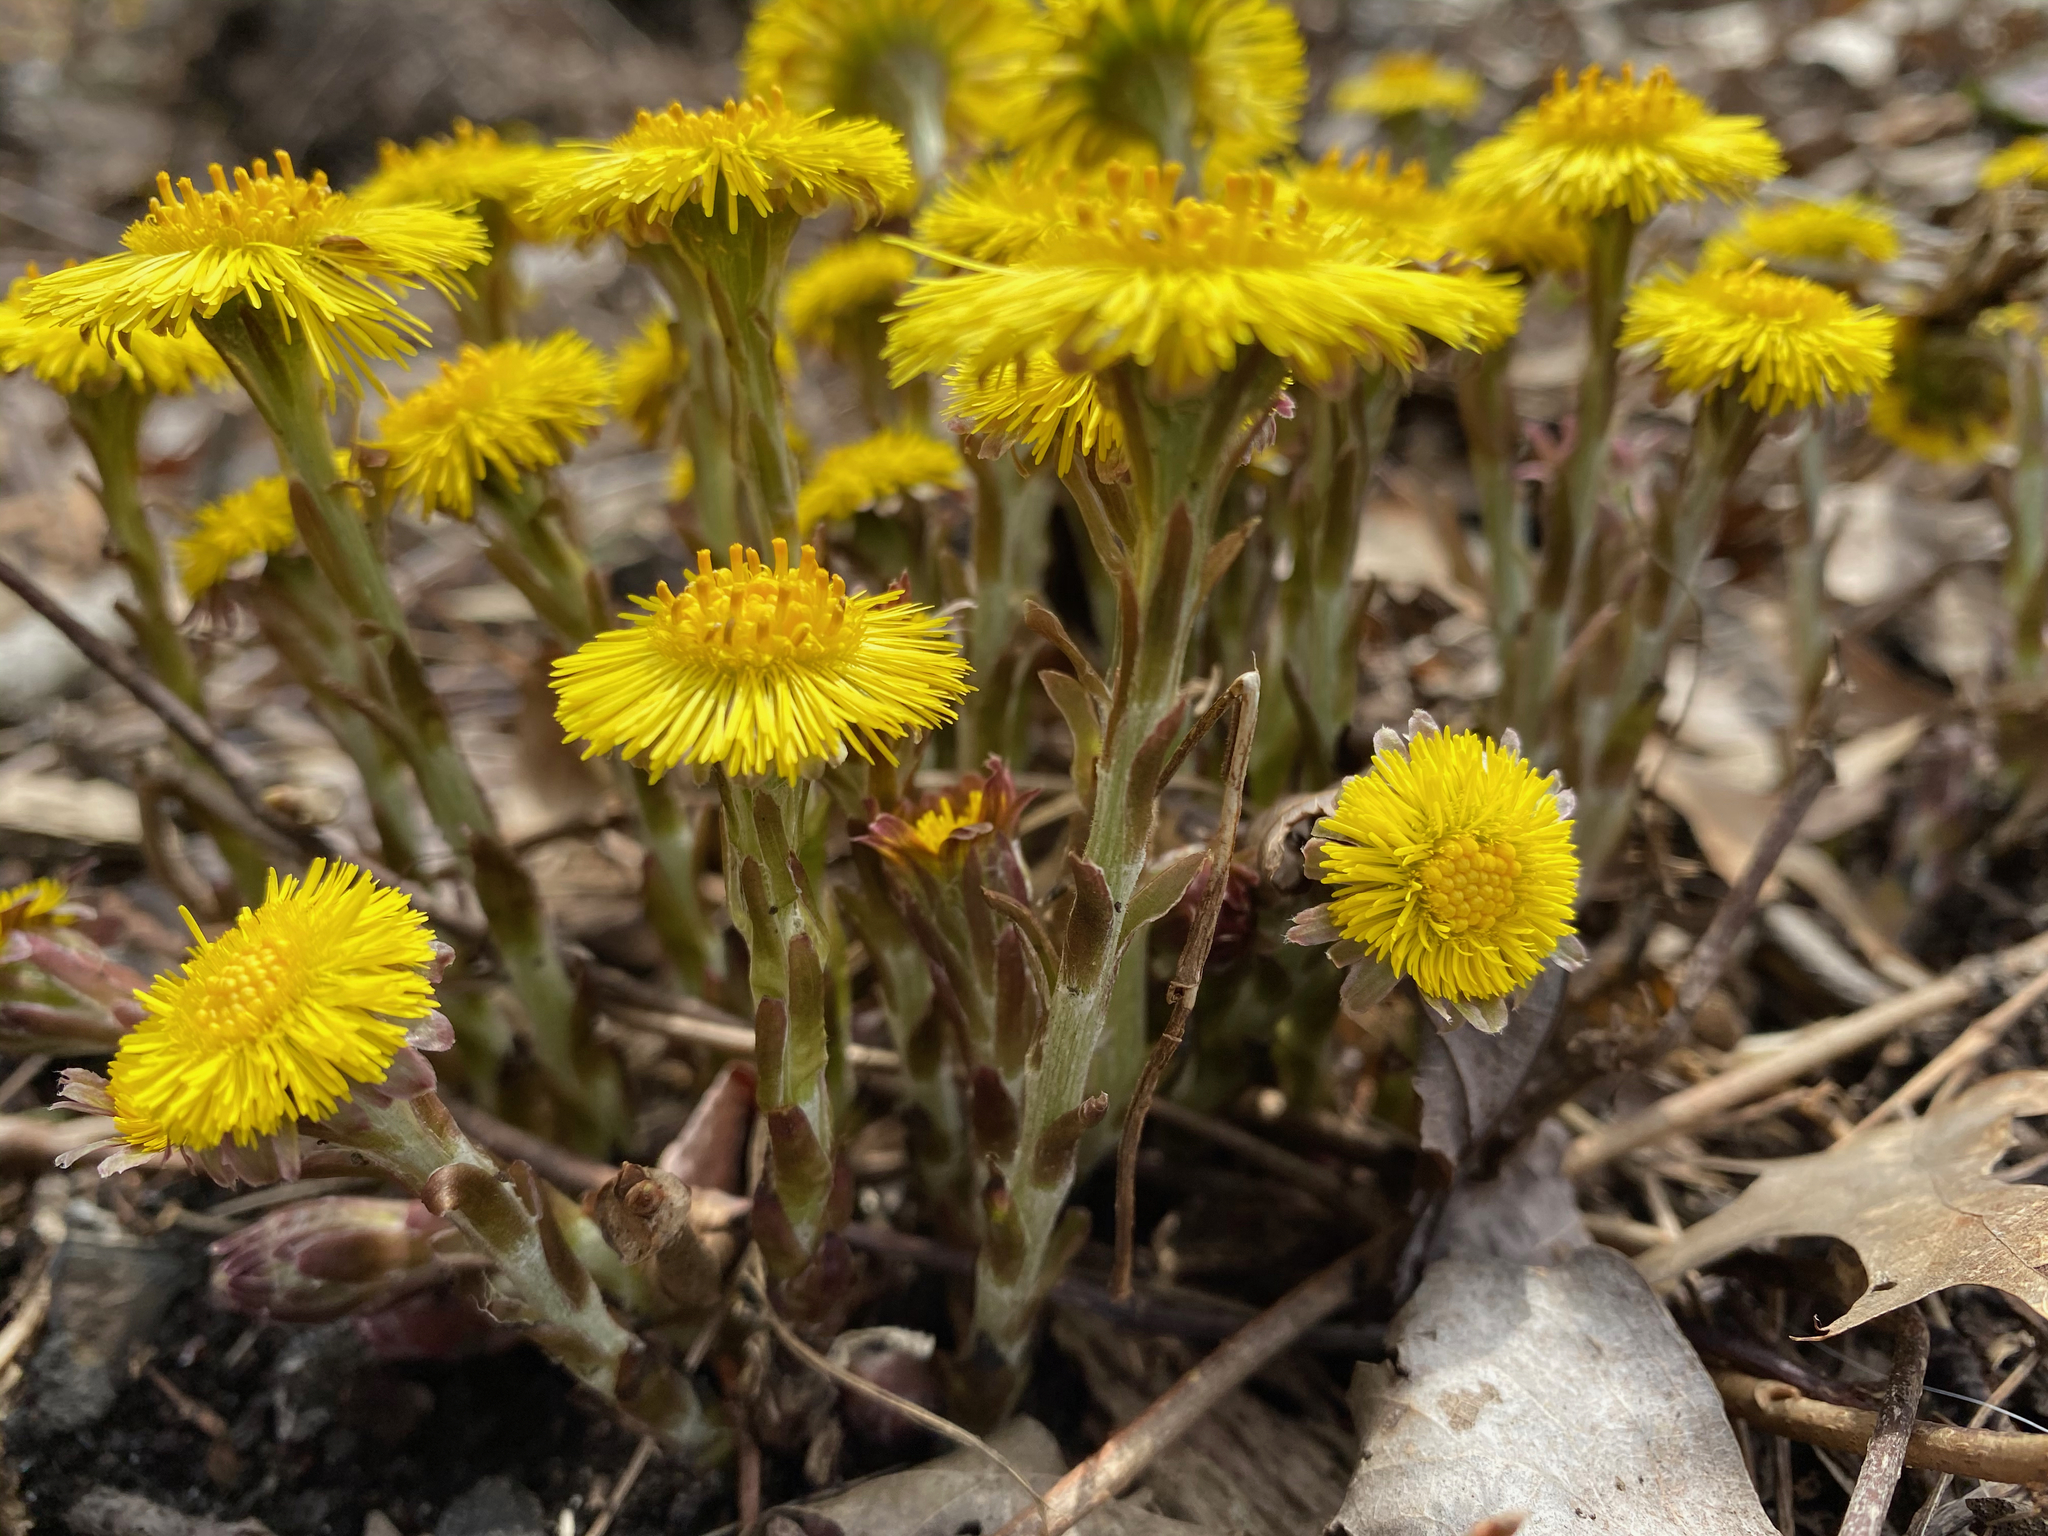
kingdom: Plantae
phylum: Tracheophyta
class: Magnoliopsida
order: Asterales
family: Asteraceae
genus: Tussilago
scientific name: Tussilago farfara
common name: Coltsfoot
